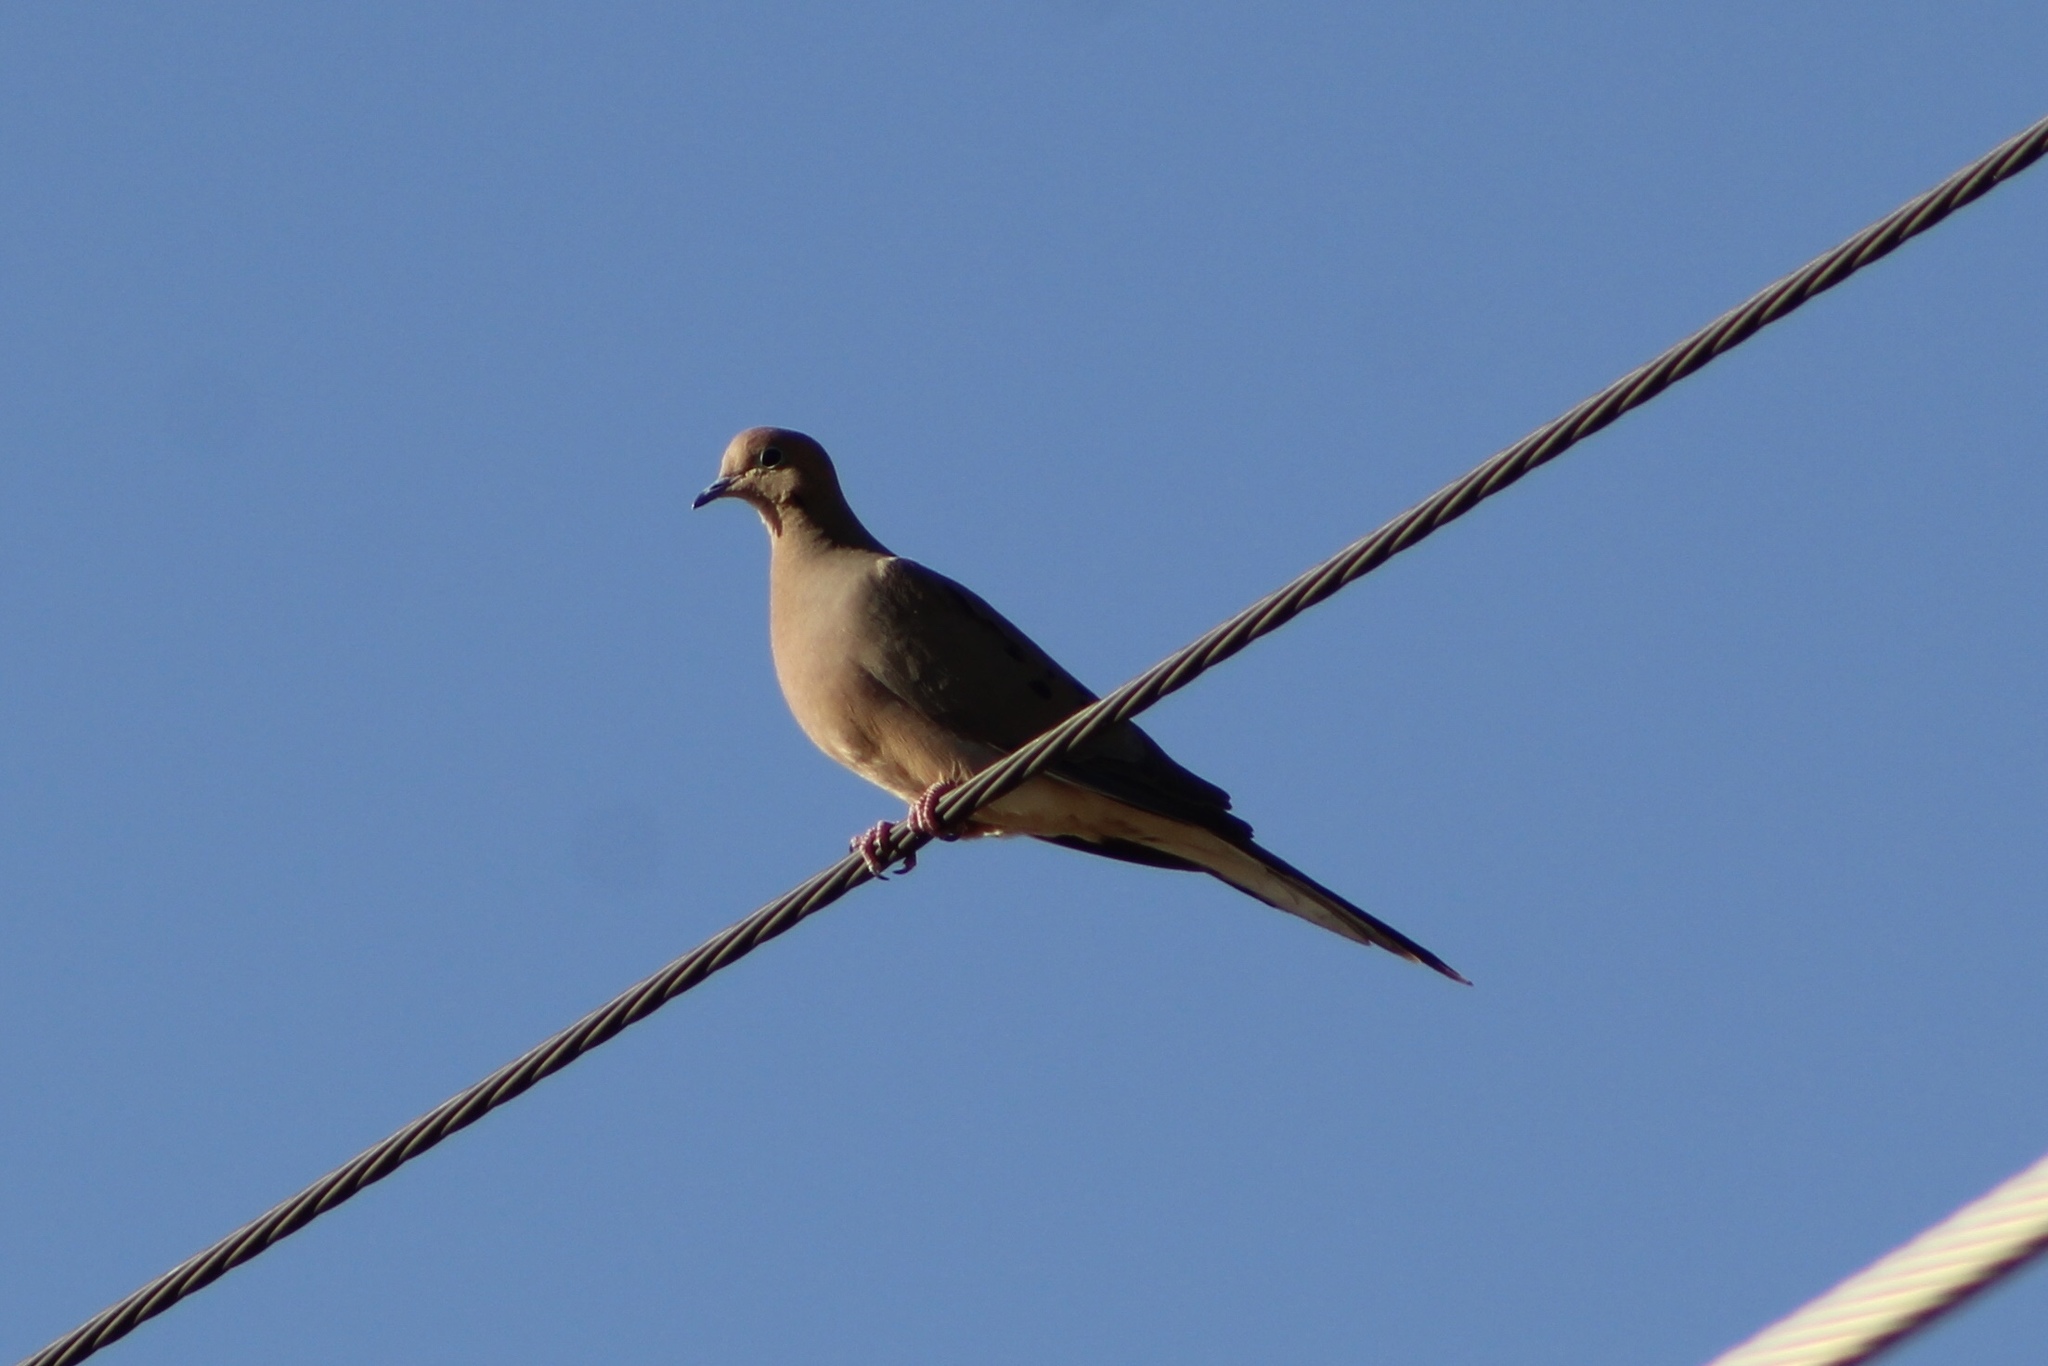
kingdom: Animalia
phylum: Chordata
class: Aves
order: Columbiformes
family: Columbidae
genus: Zenaida
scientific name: Zenaida macroura
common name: Mourning dove
